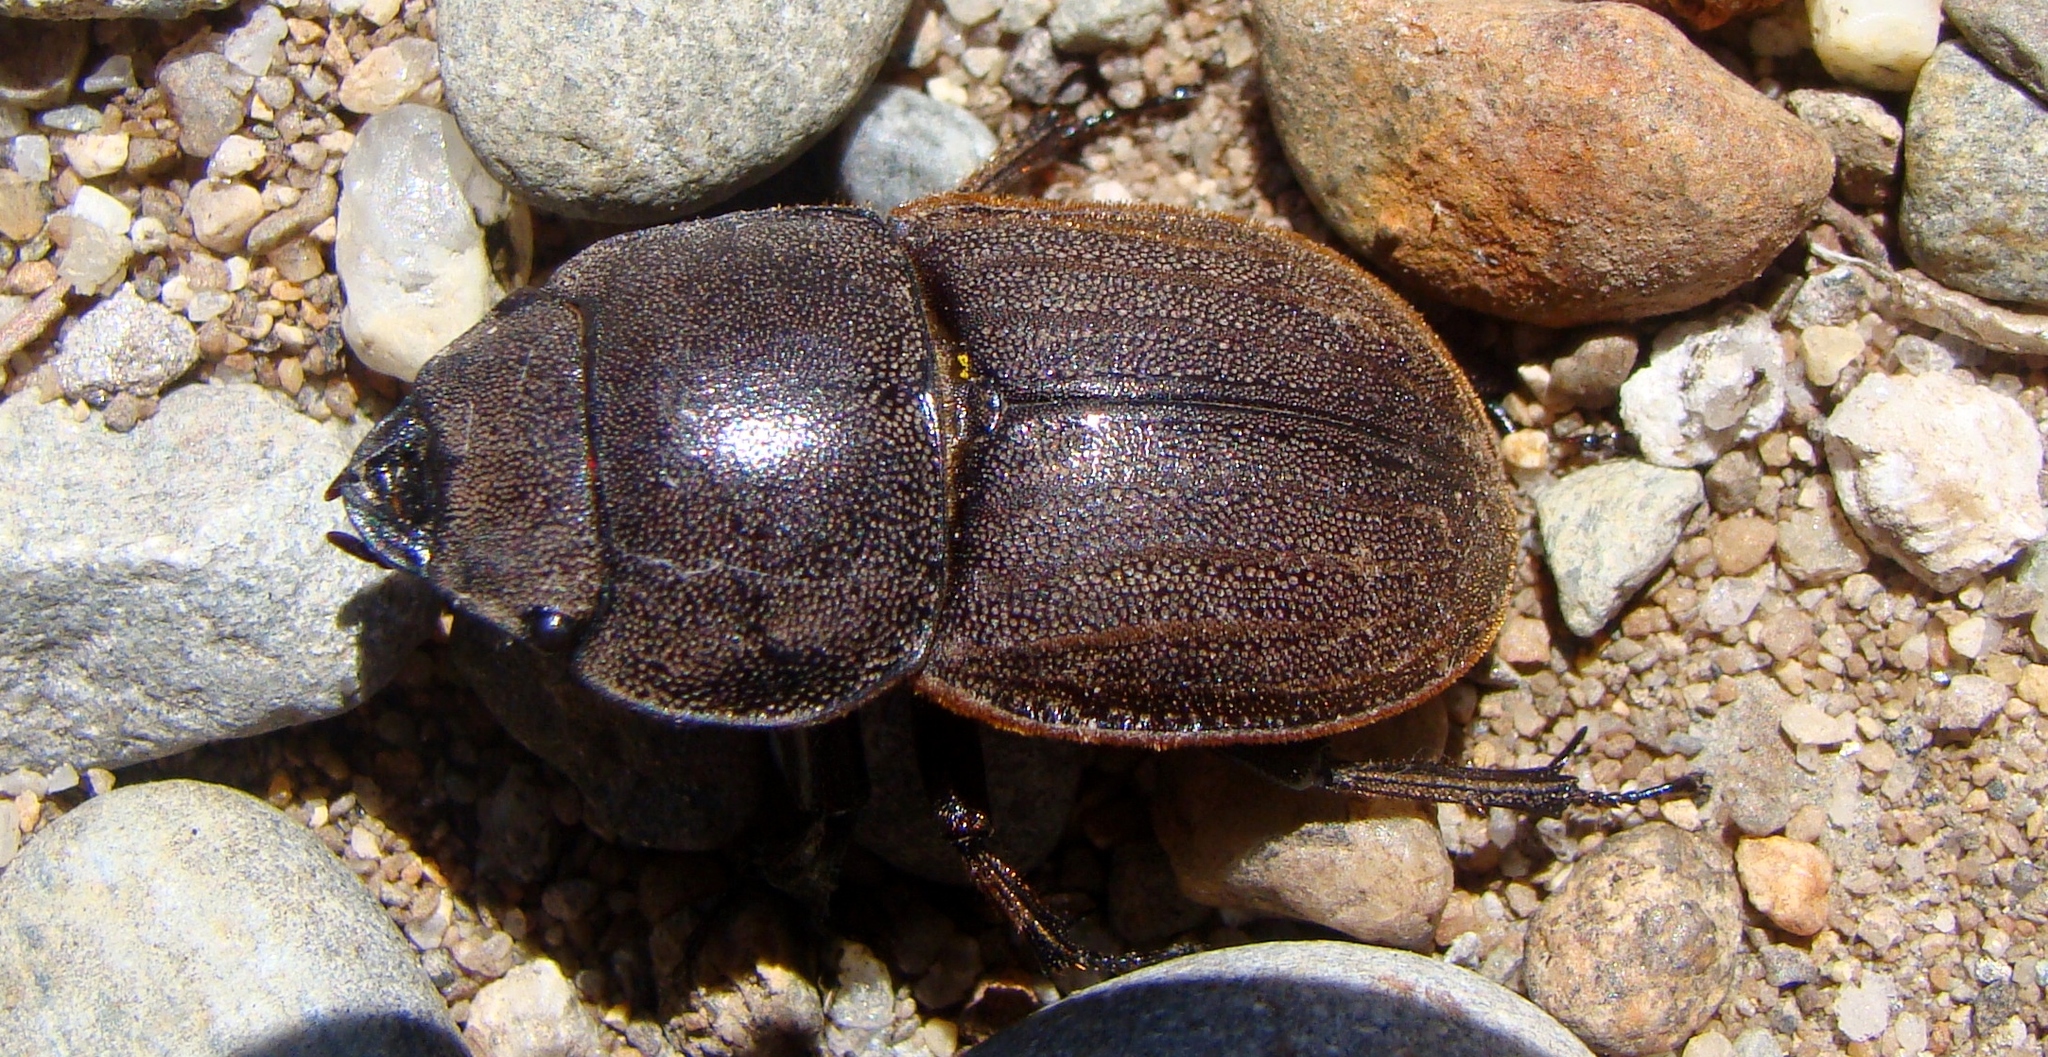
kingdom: Animalia
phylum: Arthropoda
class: Insecta
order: Coleoptera
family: Lucanidae
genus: Geodorcus
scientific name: Geodorcus helmsi
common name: Helm's stag beetle
